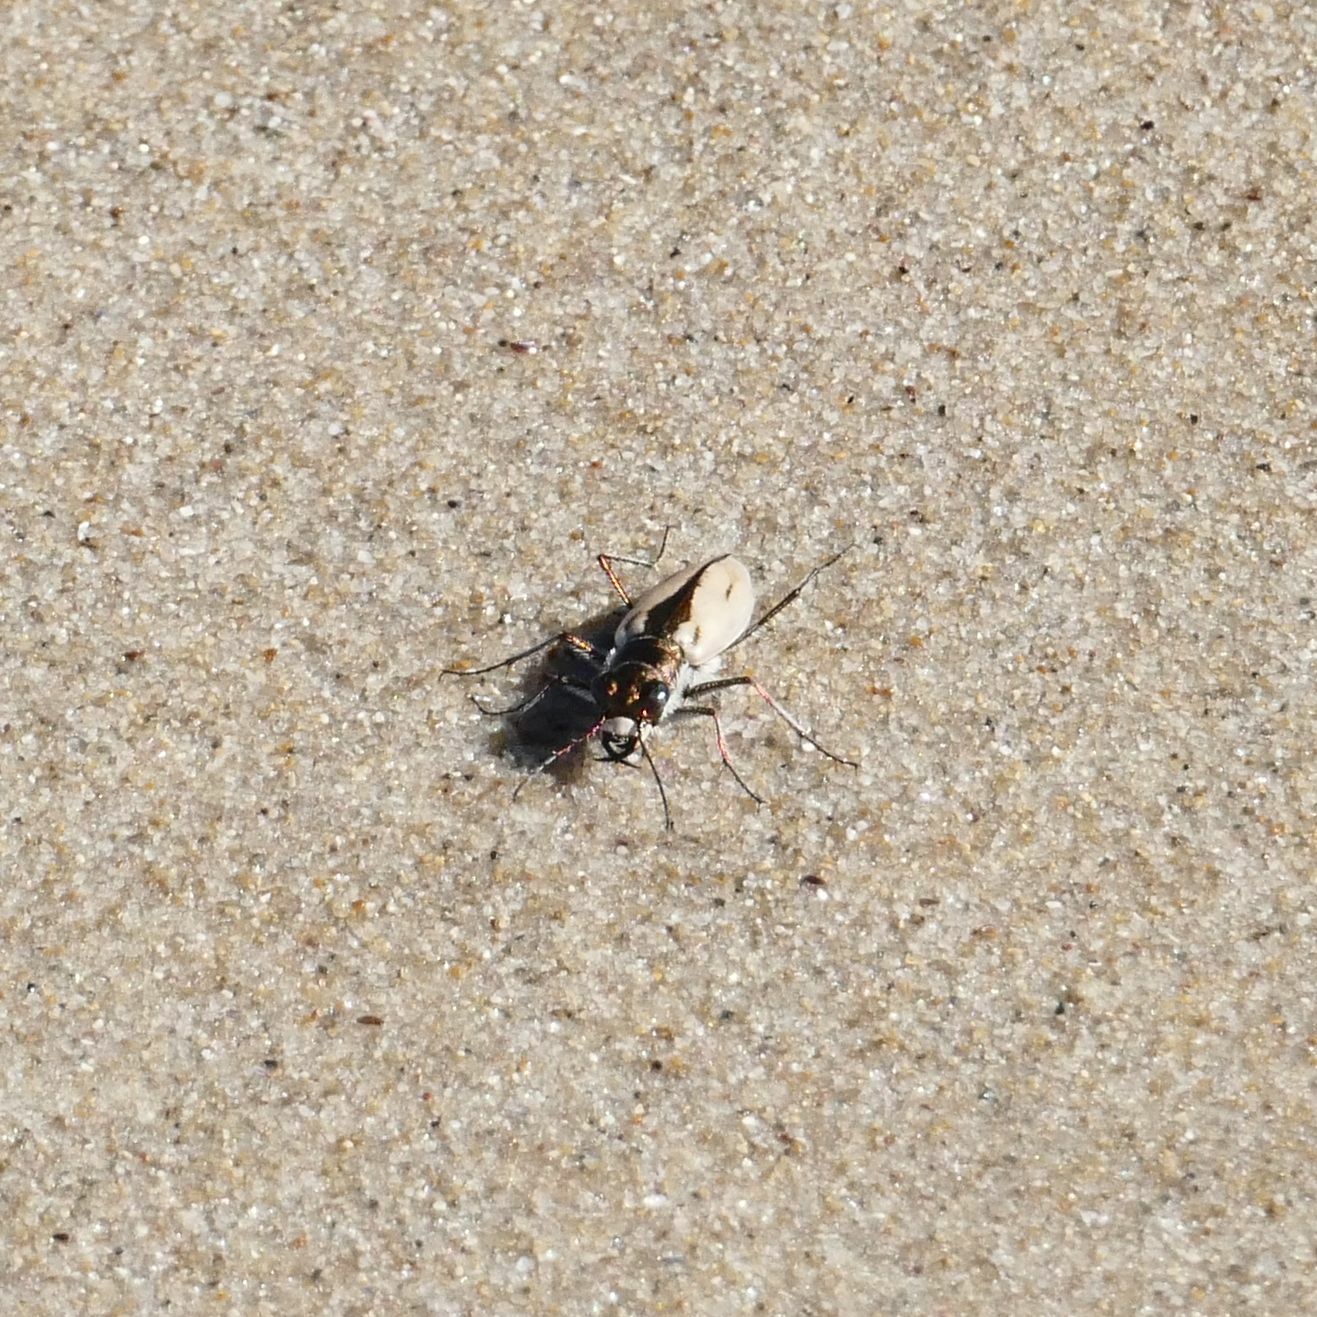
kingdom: Animalia
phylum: Arthropoda
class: Insecta
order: Coleoptera
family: Carabidae
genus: Hypaetha
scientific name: Hypaetha upsilon
